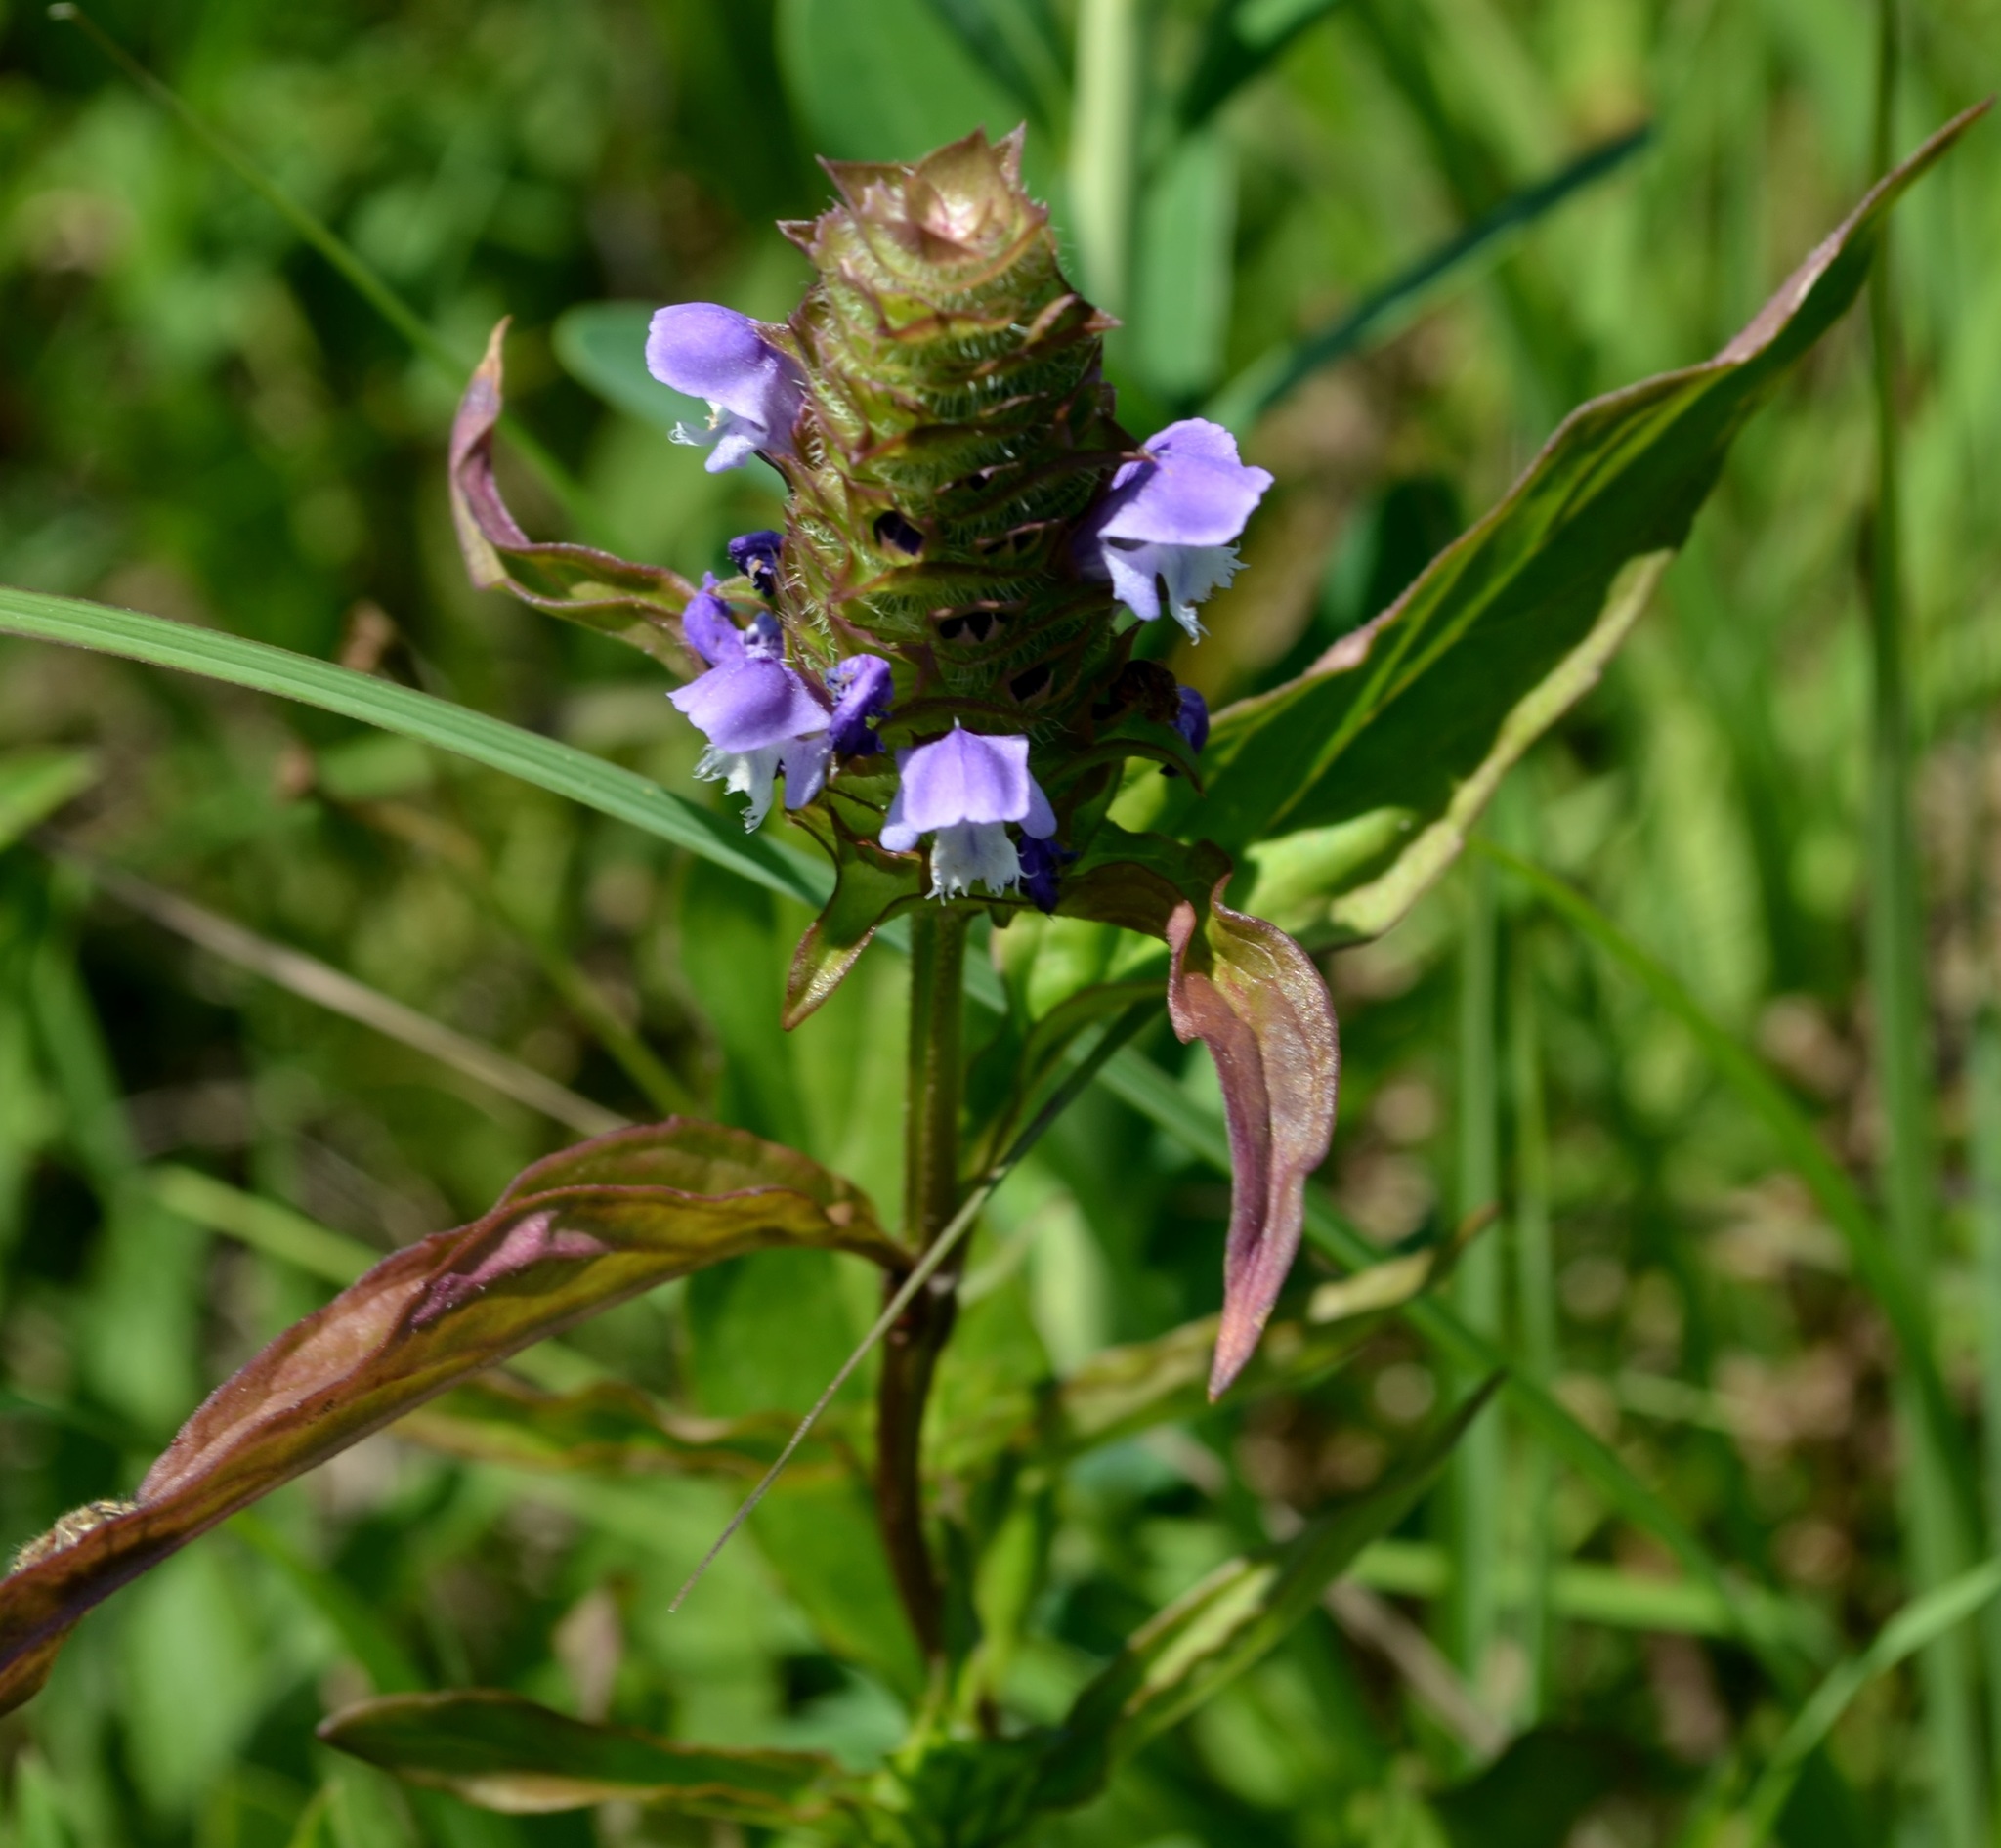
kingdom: Plantae
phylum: Tracheophyta
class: Magnoliopsida
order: Lamiales
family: Lamiaceae
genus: Prunella
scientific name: Prunella vulgaris
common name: Heal-all
